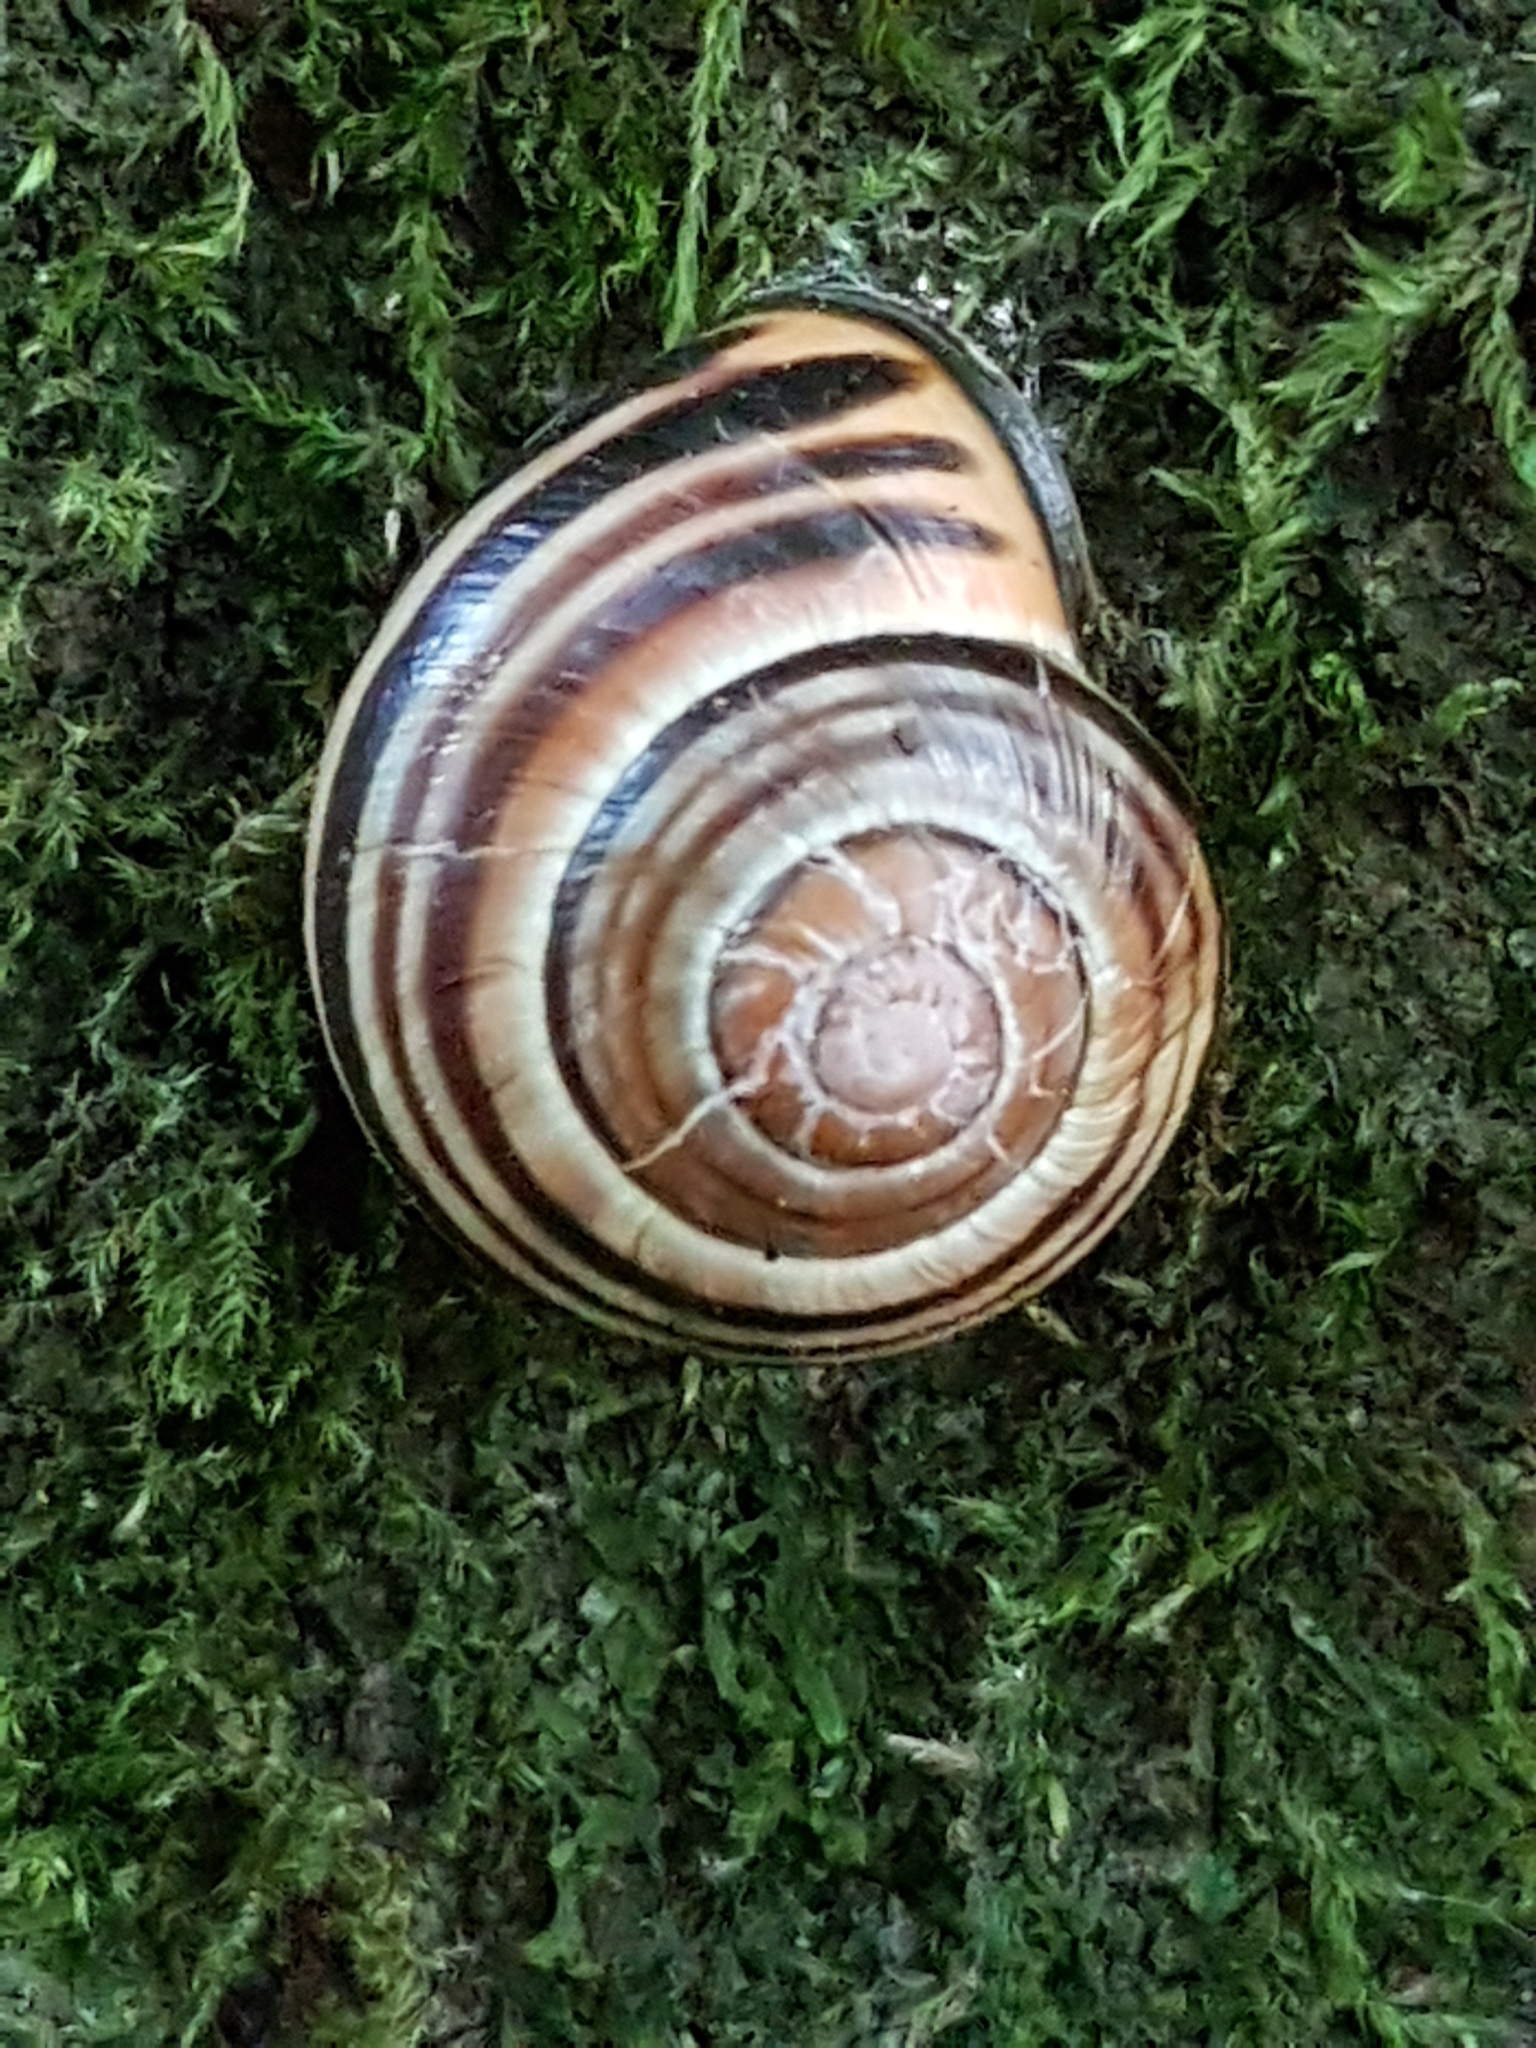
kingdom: Animalia
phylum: Mollusca
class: Gastropoda
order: Stylommatophora
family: Helicidae
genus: Cepaea
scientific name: Cepaea nemoralis
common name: Grovesnail
